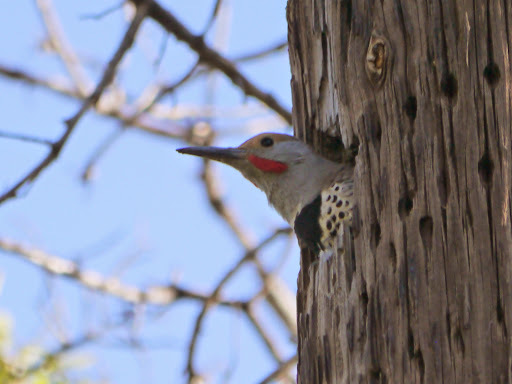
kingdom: Animalia
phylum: Chordata
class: Aves
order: Piciformes
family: Picidae
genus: Colaptes
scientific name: Colaptes
